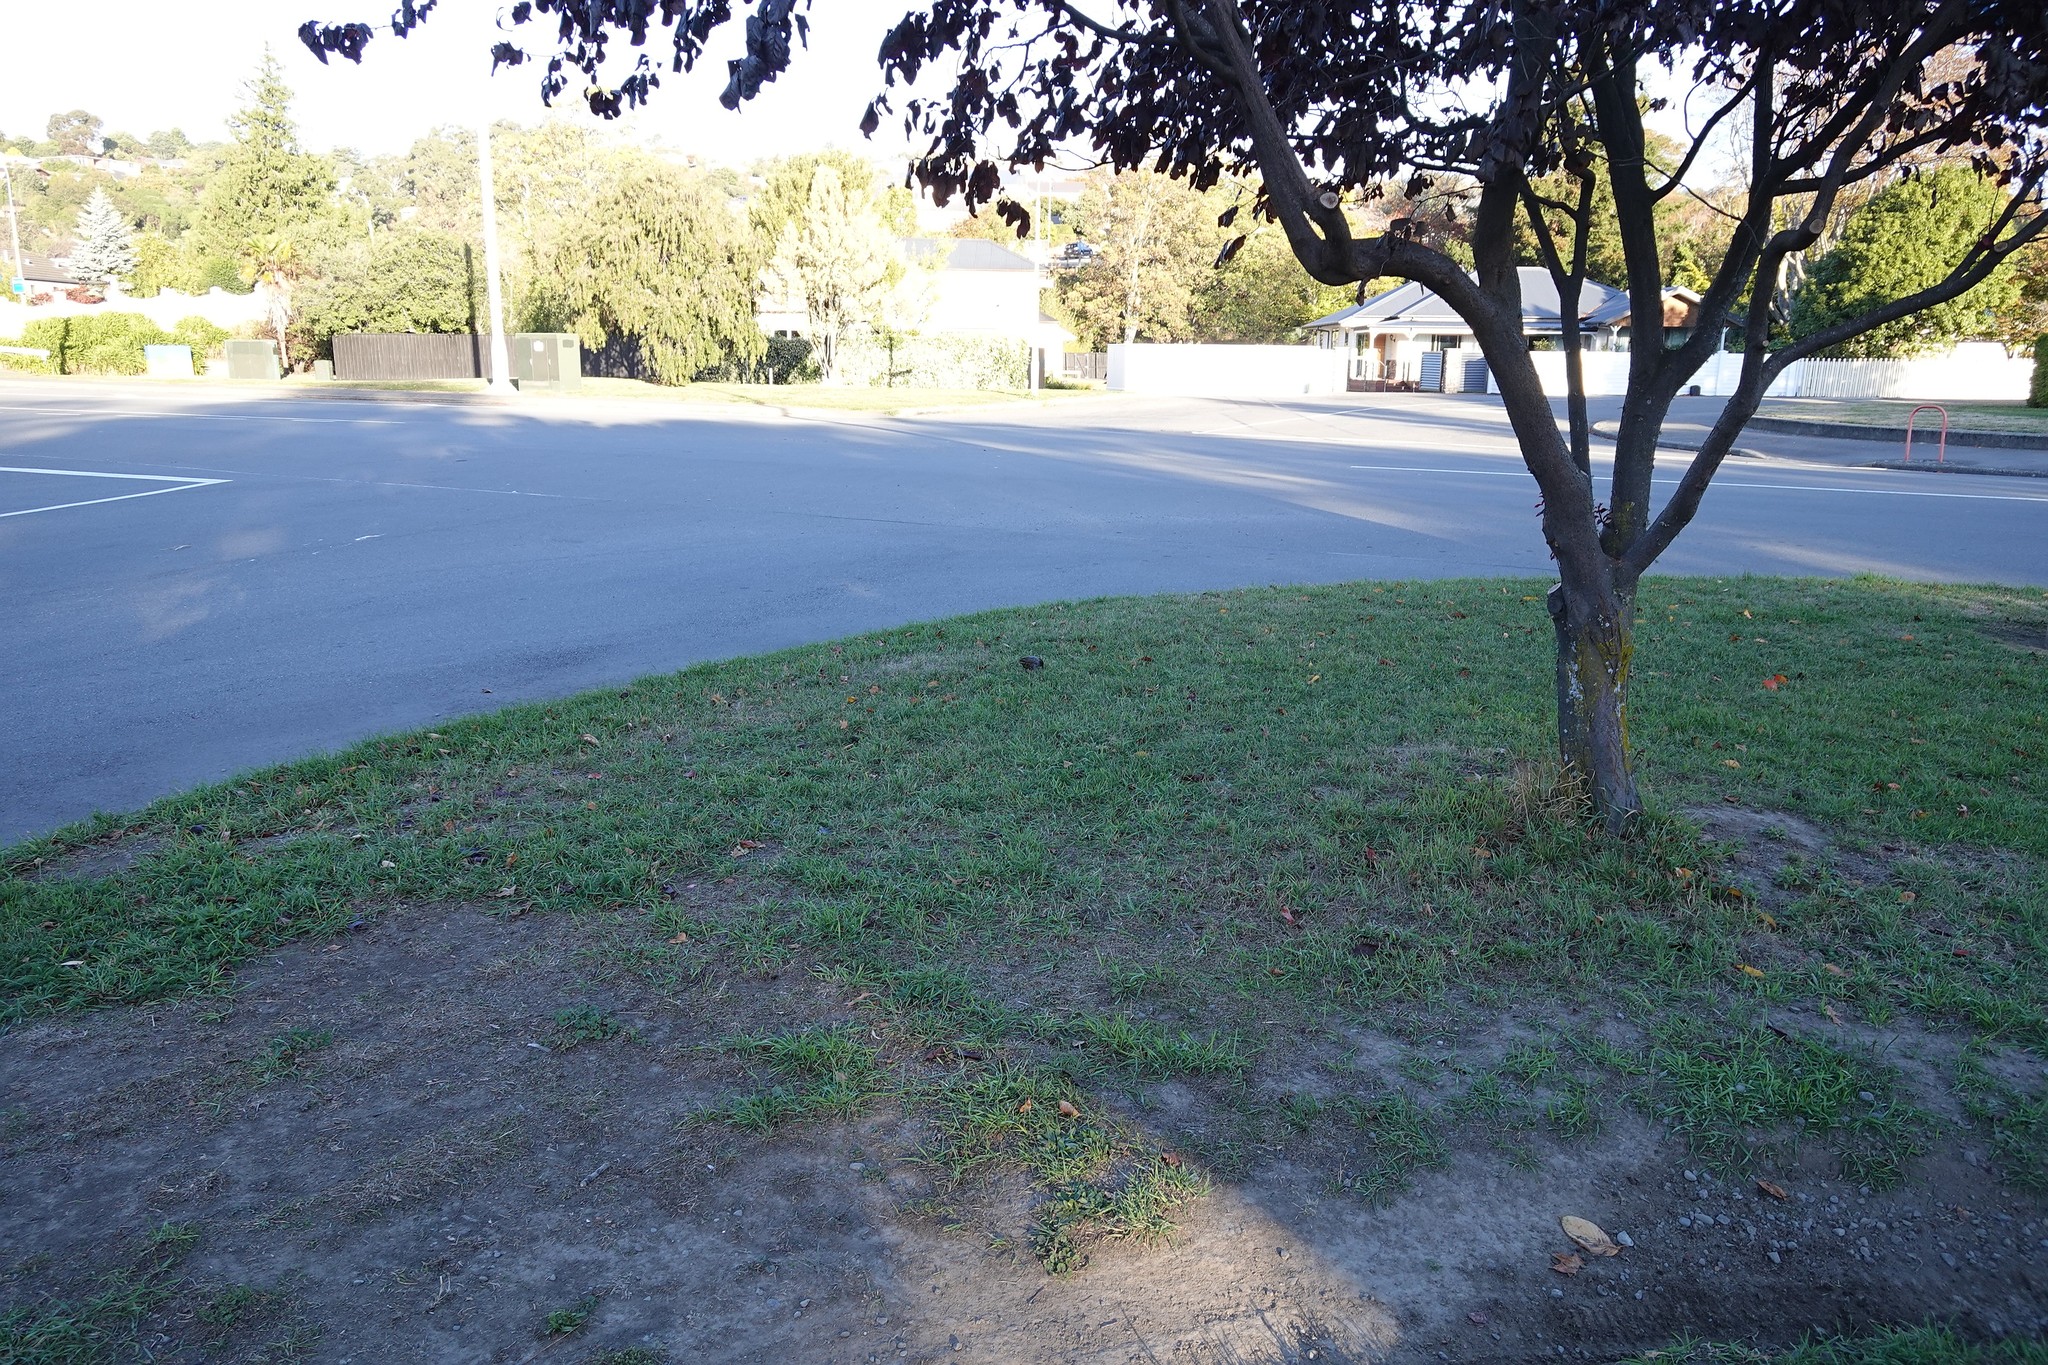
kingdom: Animalia
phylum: Chordata
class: Aves
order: Passeriformes
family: Sturnidae
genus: Sturnus
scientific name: Sturnus vulgaris
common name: Common starling
